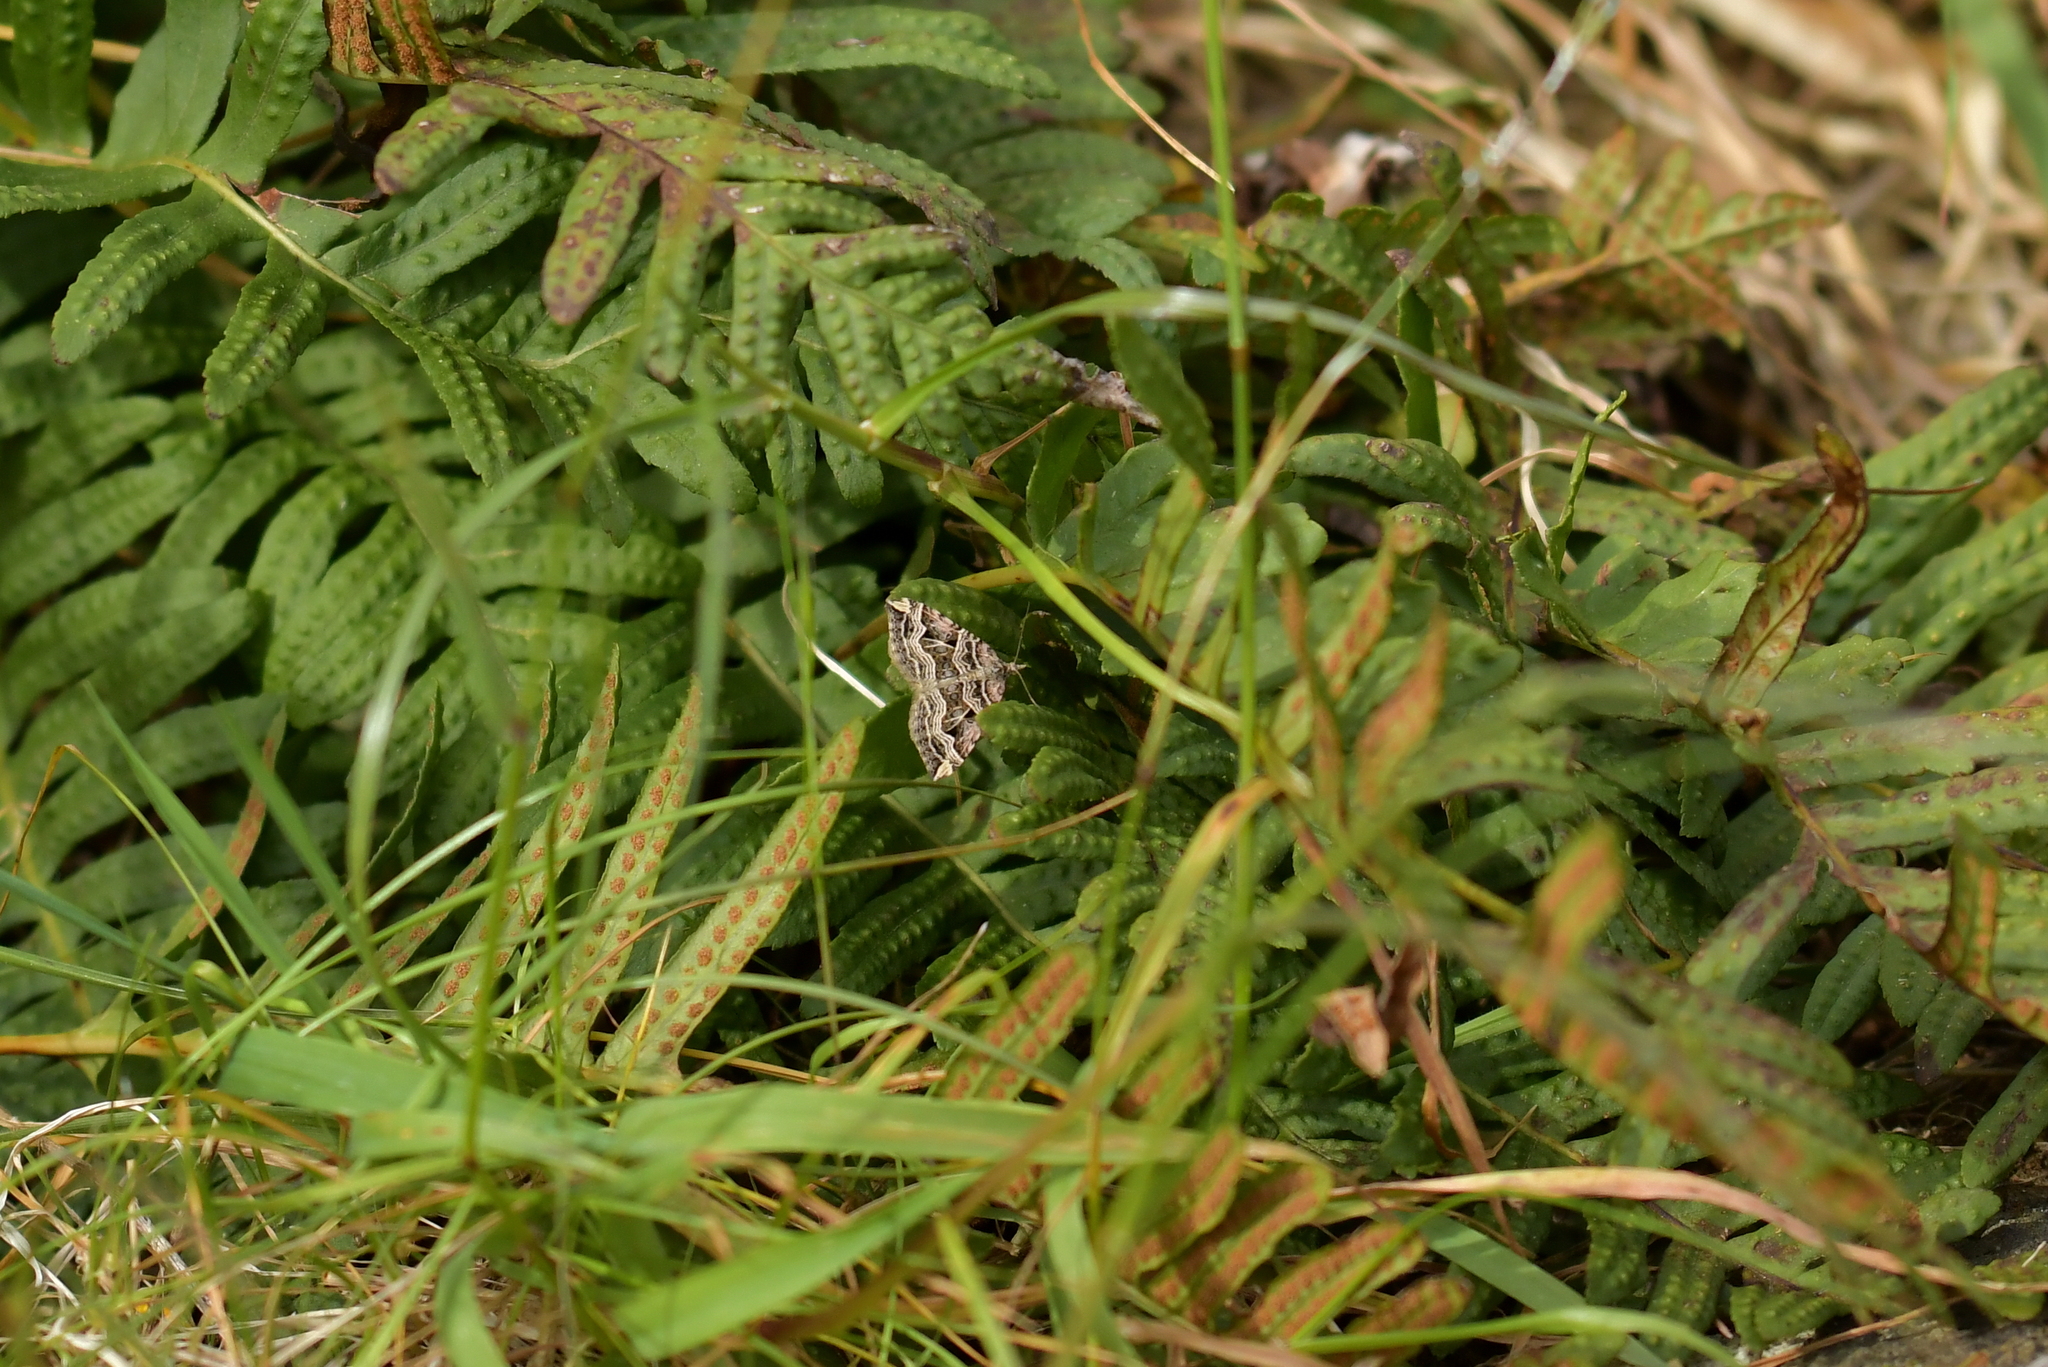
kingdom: Animalia
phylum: Arthropoda
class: Insecta
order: Lepidoptera
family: Geometridae
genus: Xanthorhoe
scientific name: Xanthorhoe semifissata
